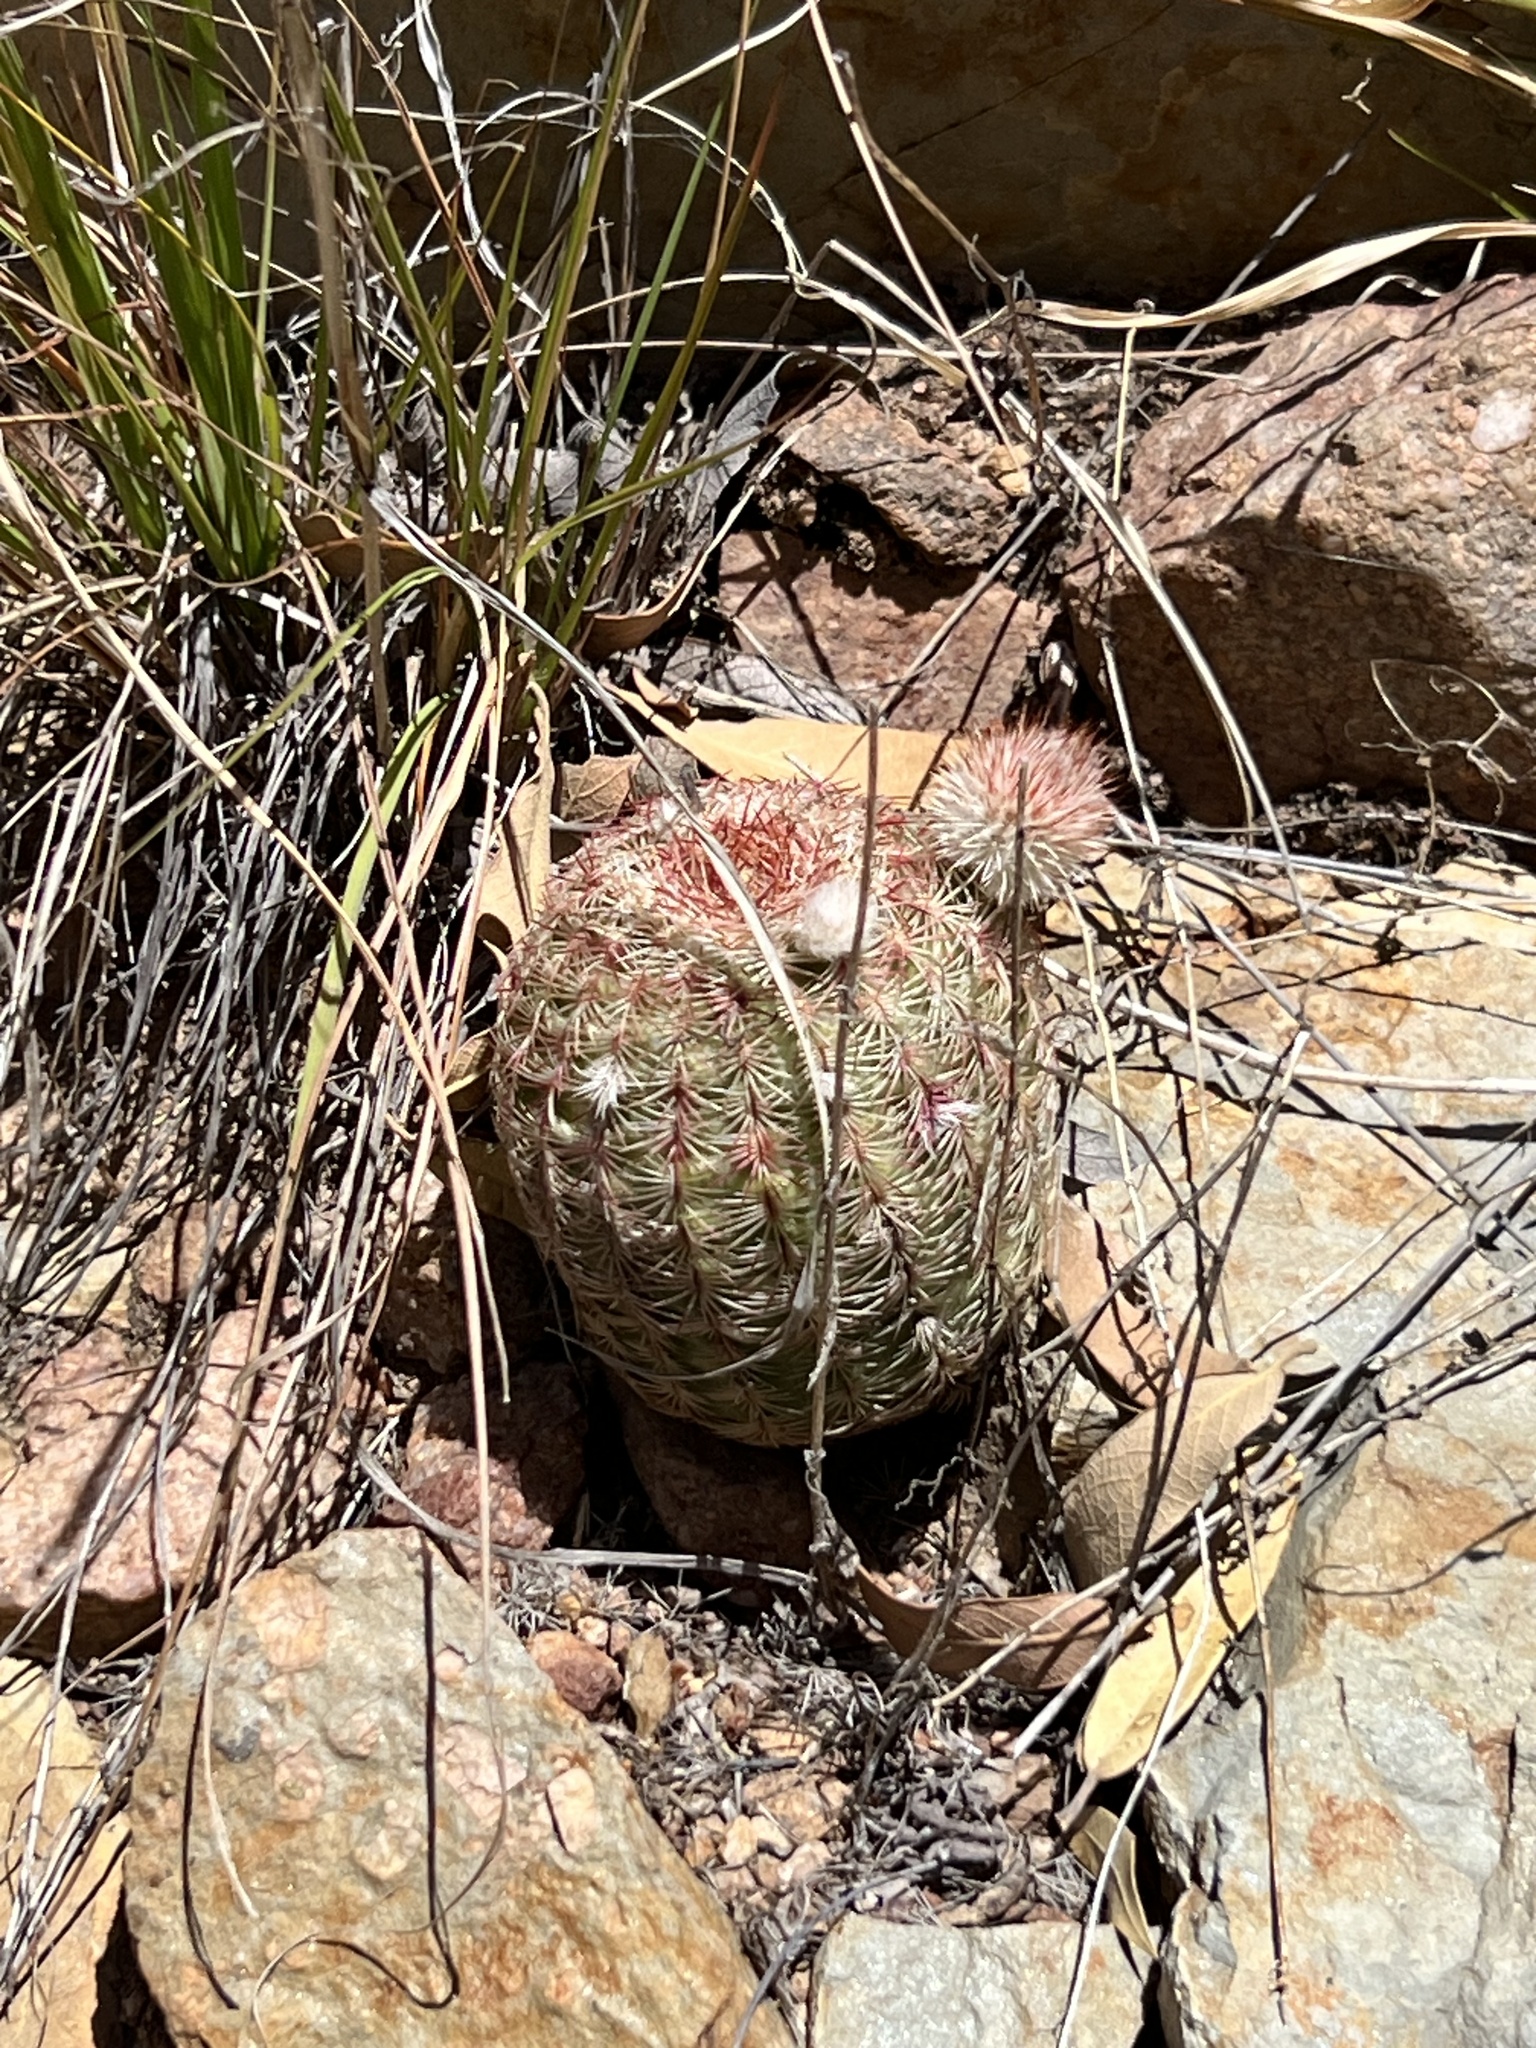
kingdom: Plantae
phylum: Tracheophyta
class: Magnoliopsida
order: Caryophyllales
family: Cactaceae
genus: Echinocereus
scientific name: Echinocereus rigidissimus
